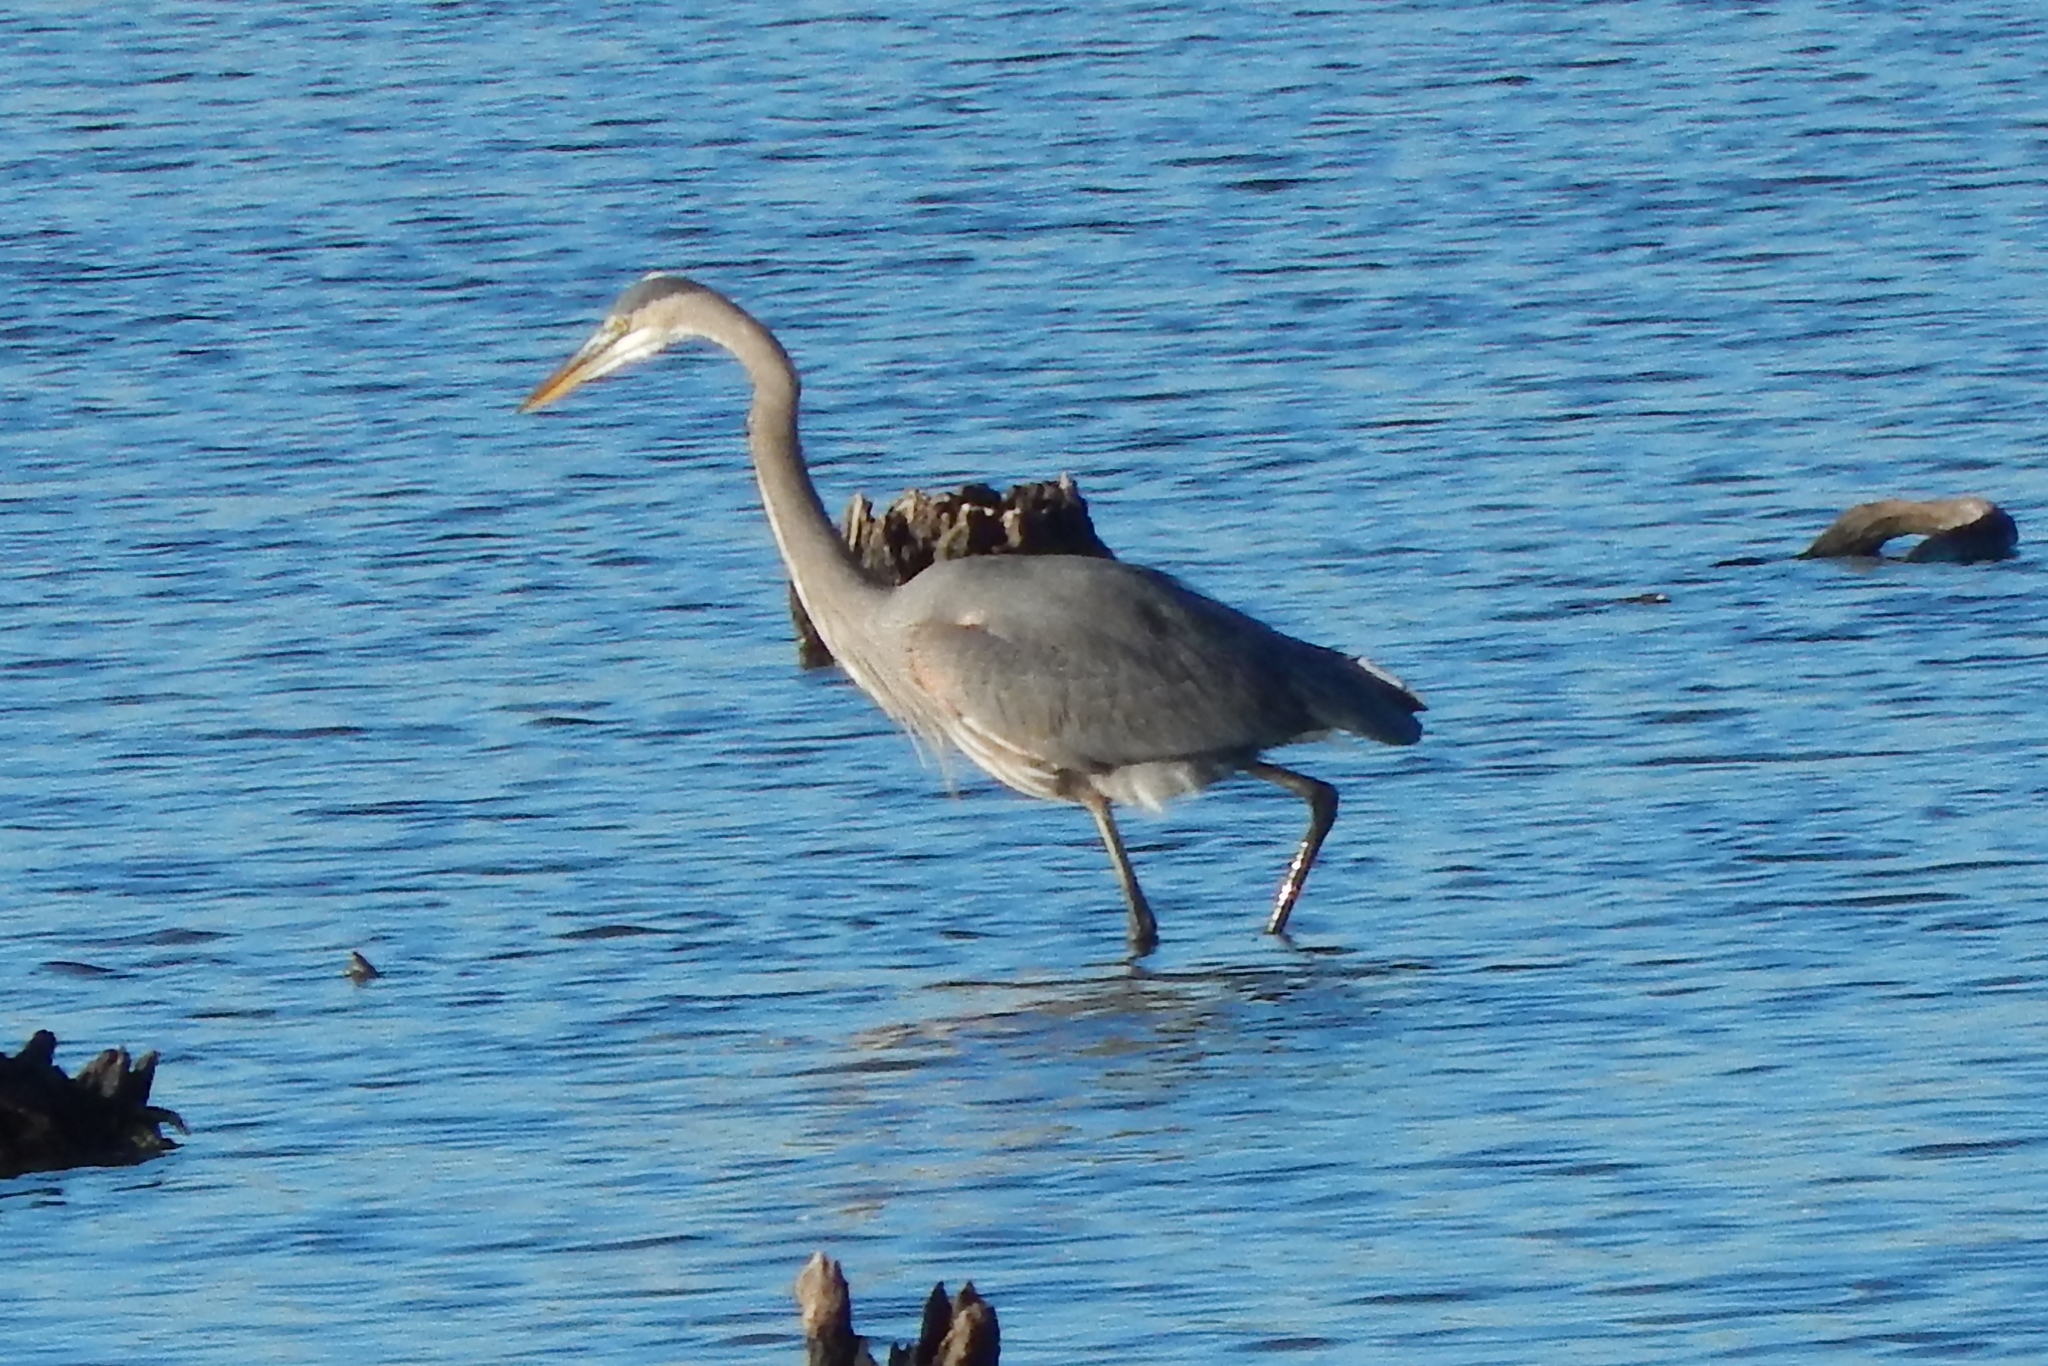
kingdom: Animalia
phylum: Chordata
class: Aves
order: Pelecaniformes
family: Ardeidae
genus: Ardea
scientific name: Ardea herodias
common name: Great blue heron
